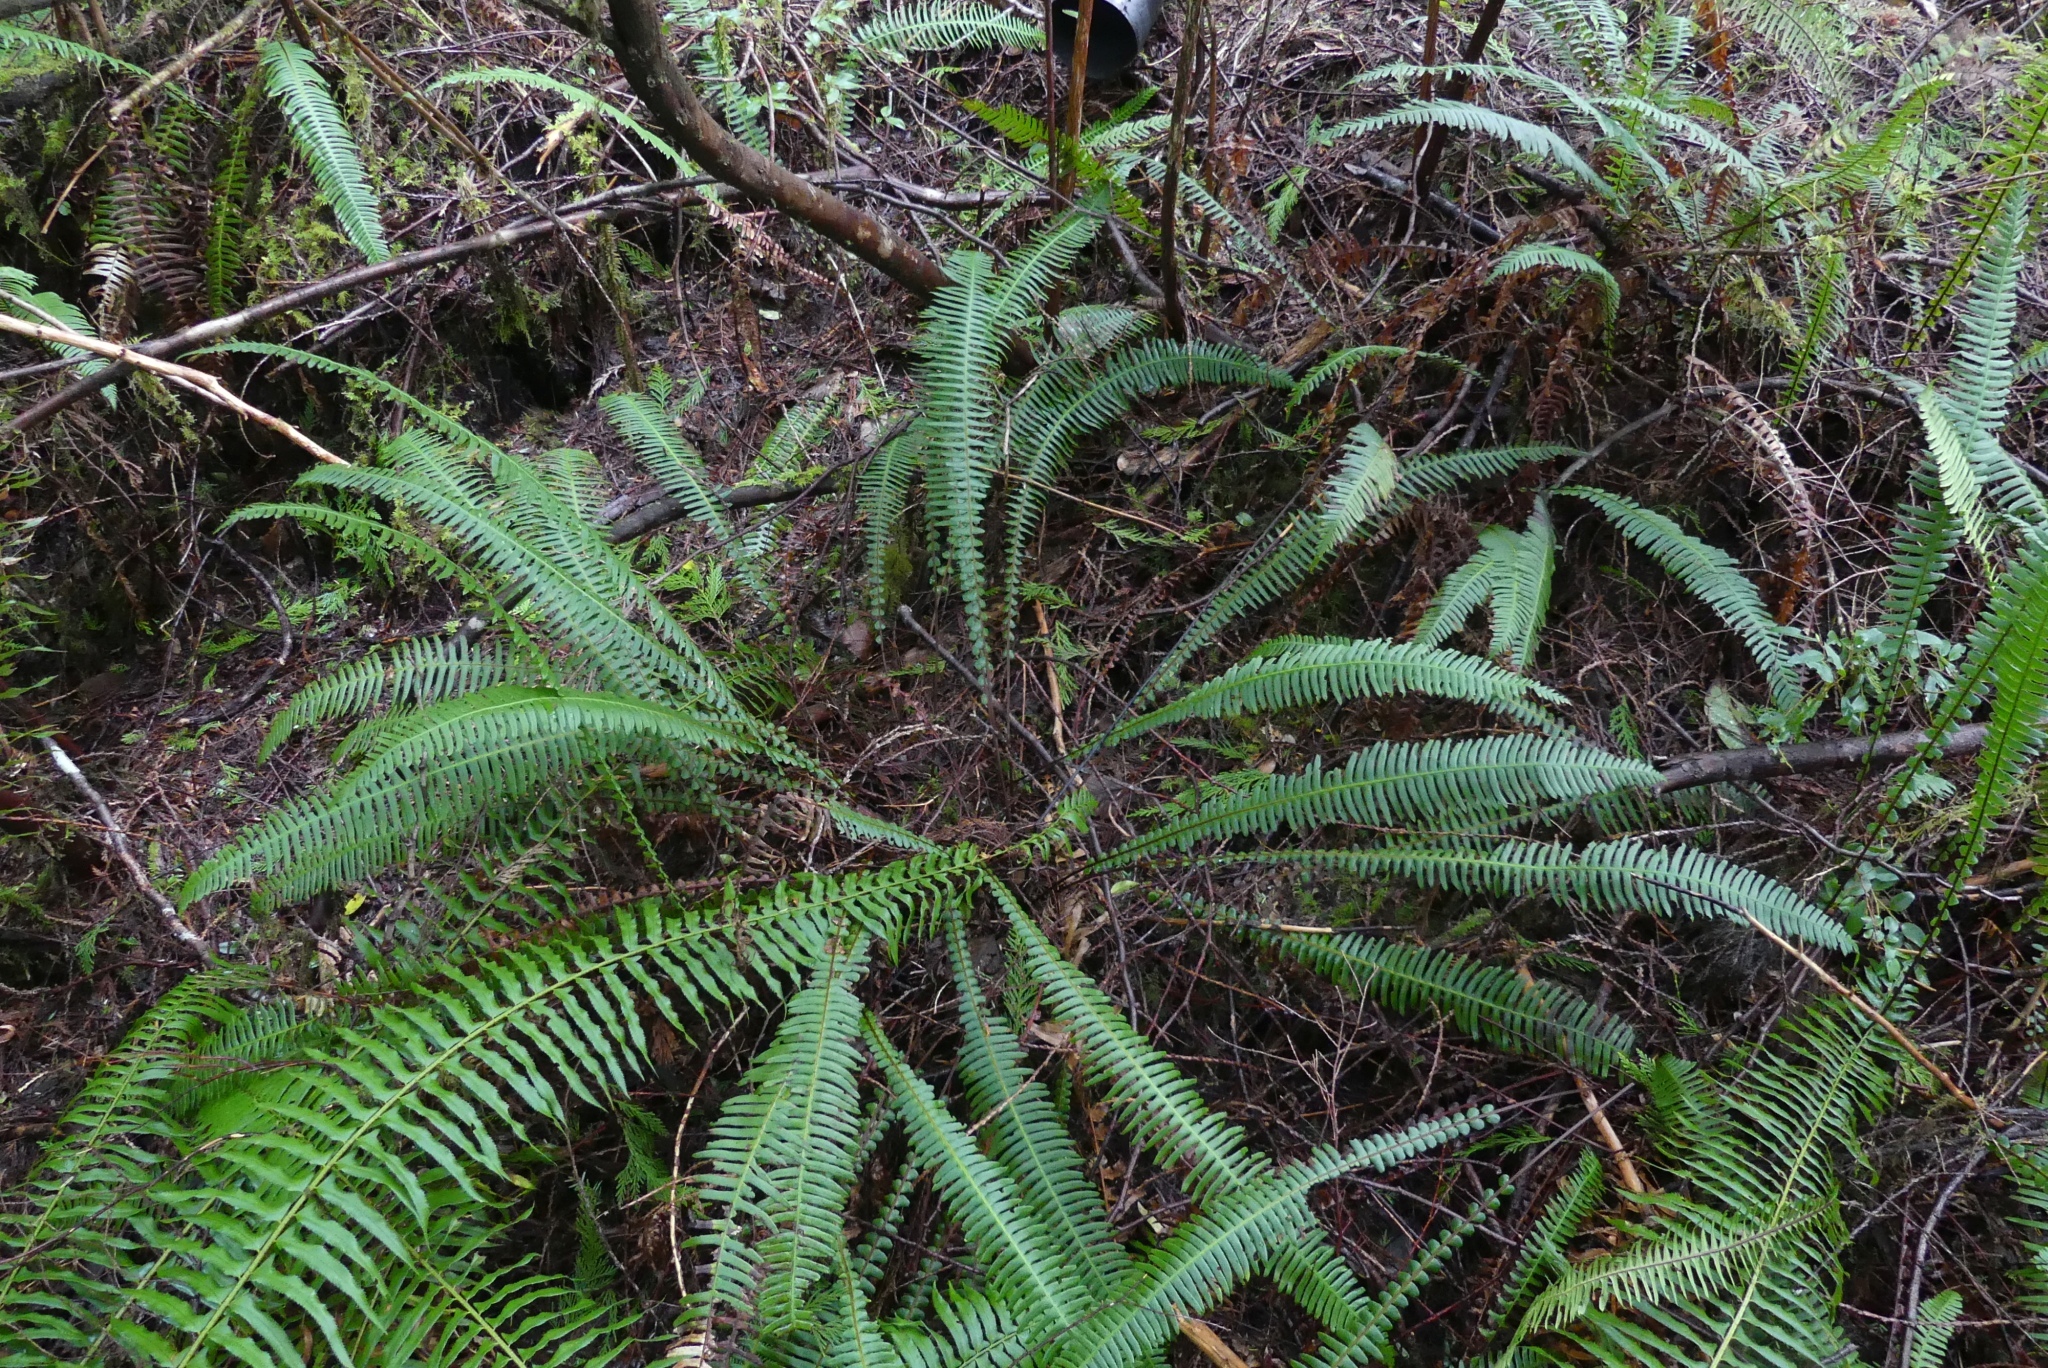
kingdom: Plantae
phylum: Tracheophyta
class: Polypodiopsida
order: Polypodiales
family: Blechnaceae
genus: Struthiopteris
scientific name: Struthiopteris spicant
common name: Deer fern
